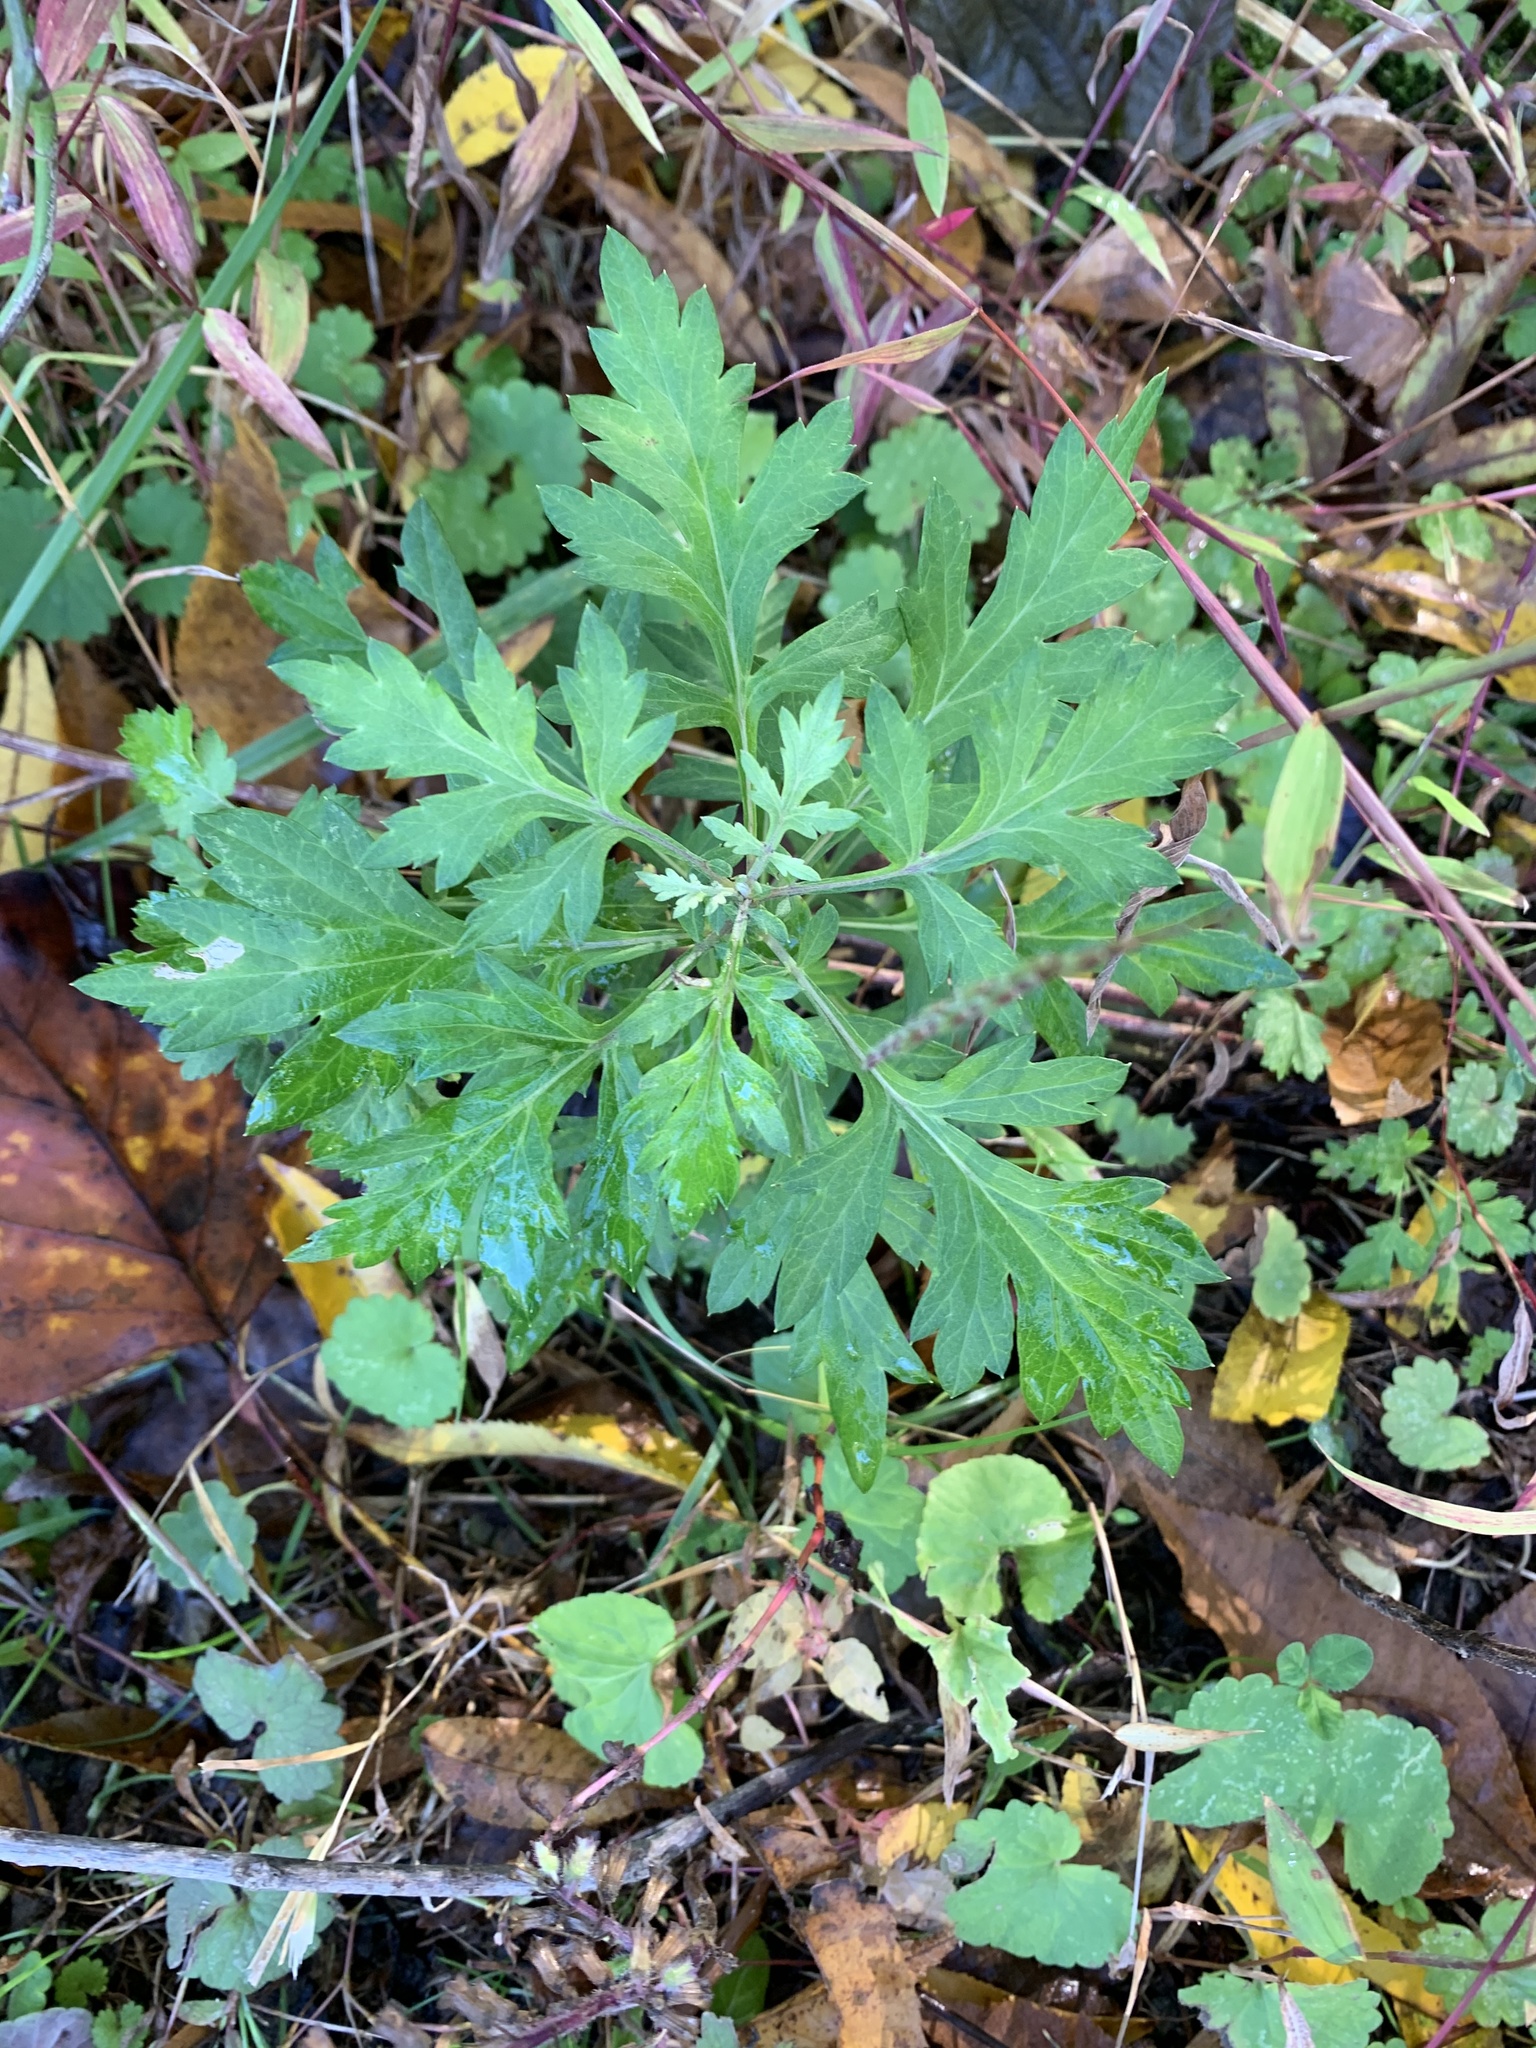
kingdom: Plantae
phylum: Tracheophyta
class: Magnoliopsida
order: Asterales
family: Asteraceae
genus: Artemisia
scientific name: Artemisia vulgaris
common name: Mugwort
